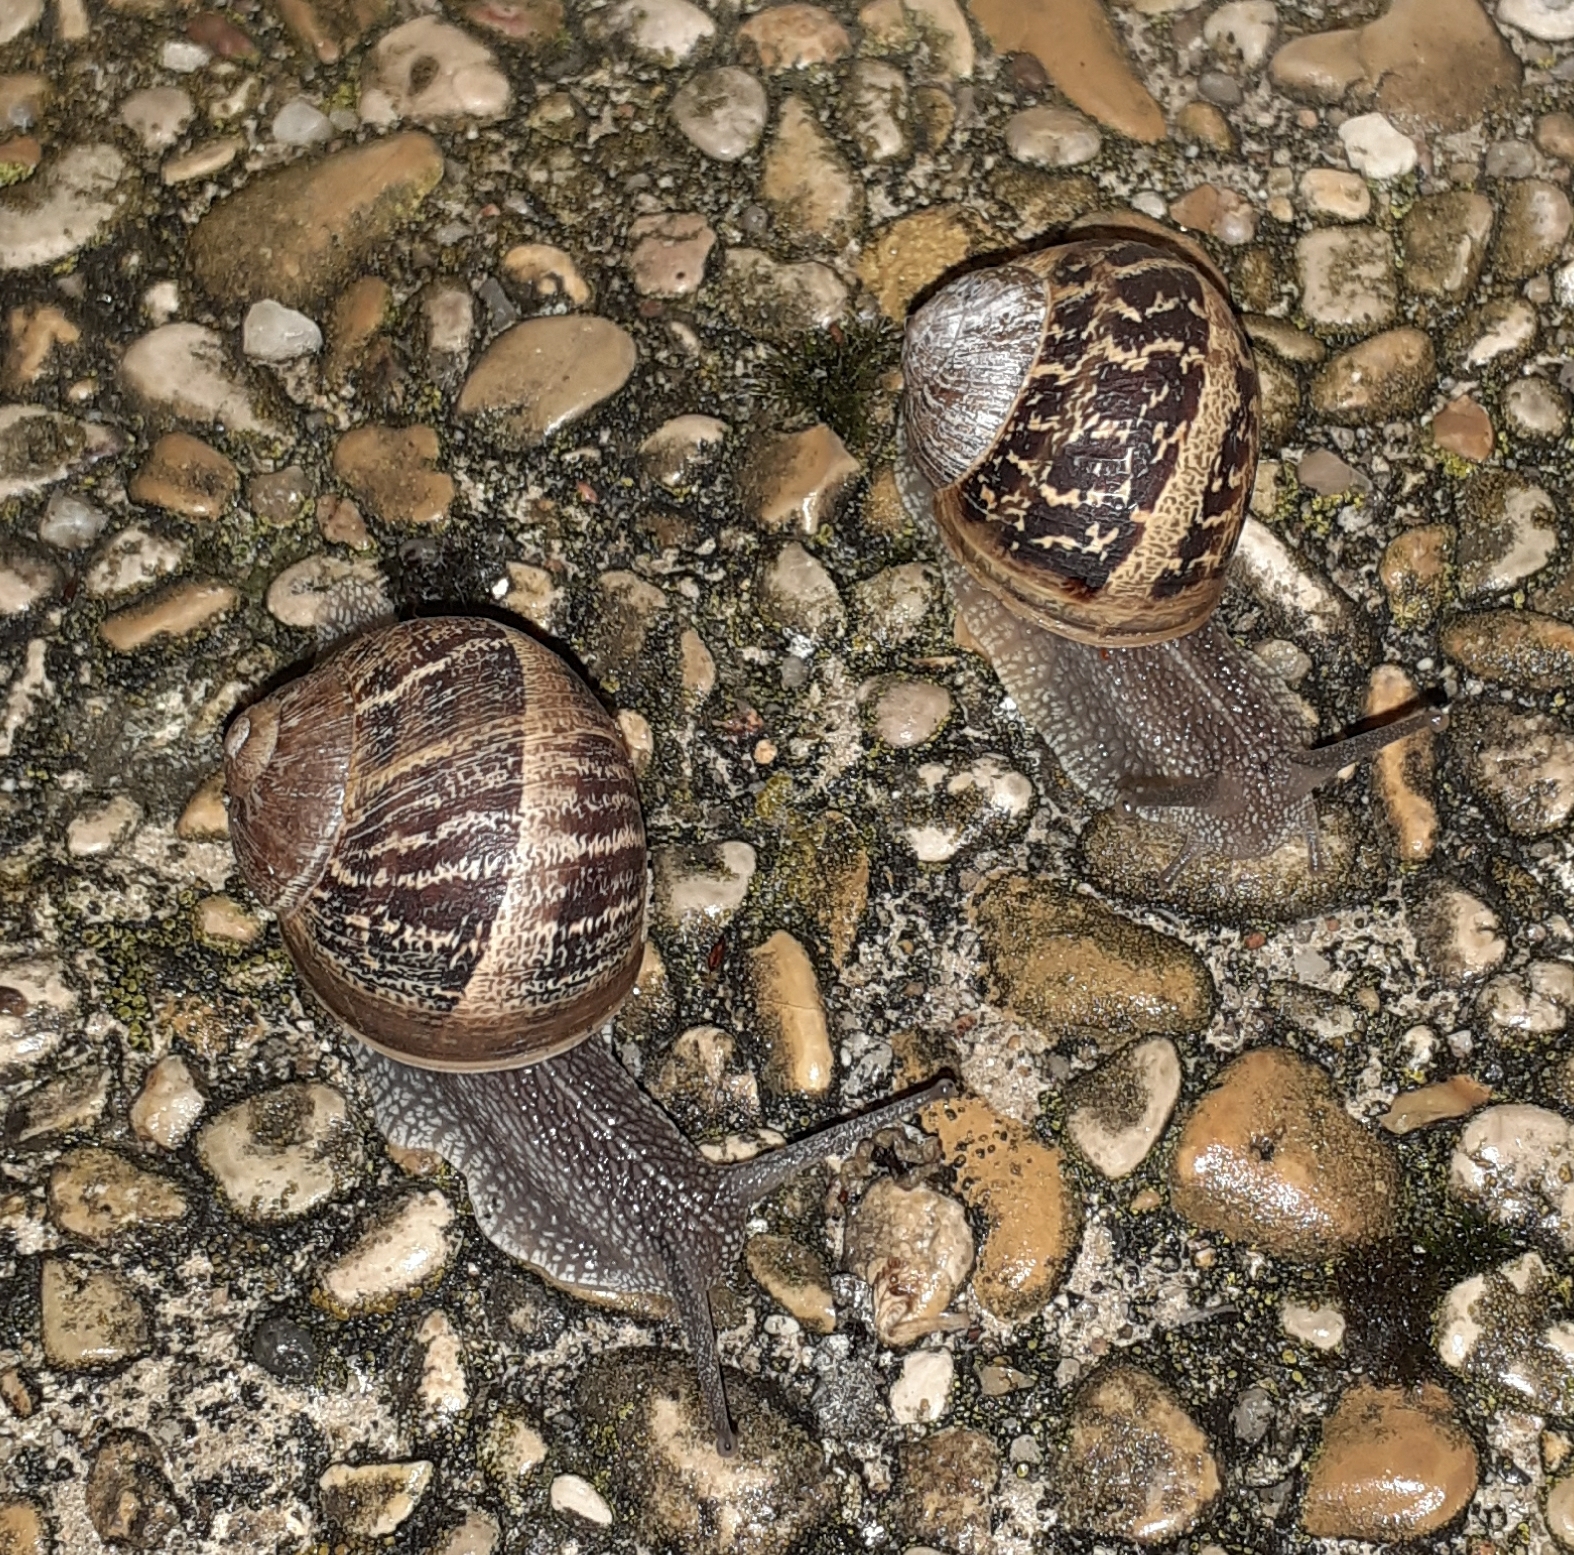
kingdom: Animalia
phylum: Mollusca
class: Gastropoda
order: Stylommatophora
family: Helicidae
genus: Cornu
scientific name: Cornu aspersum
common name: Brown garden snail
